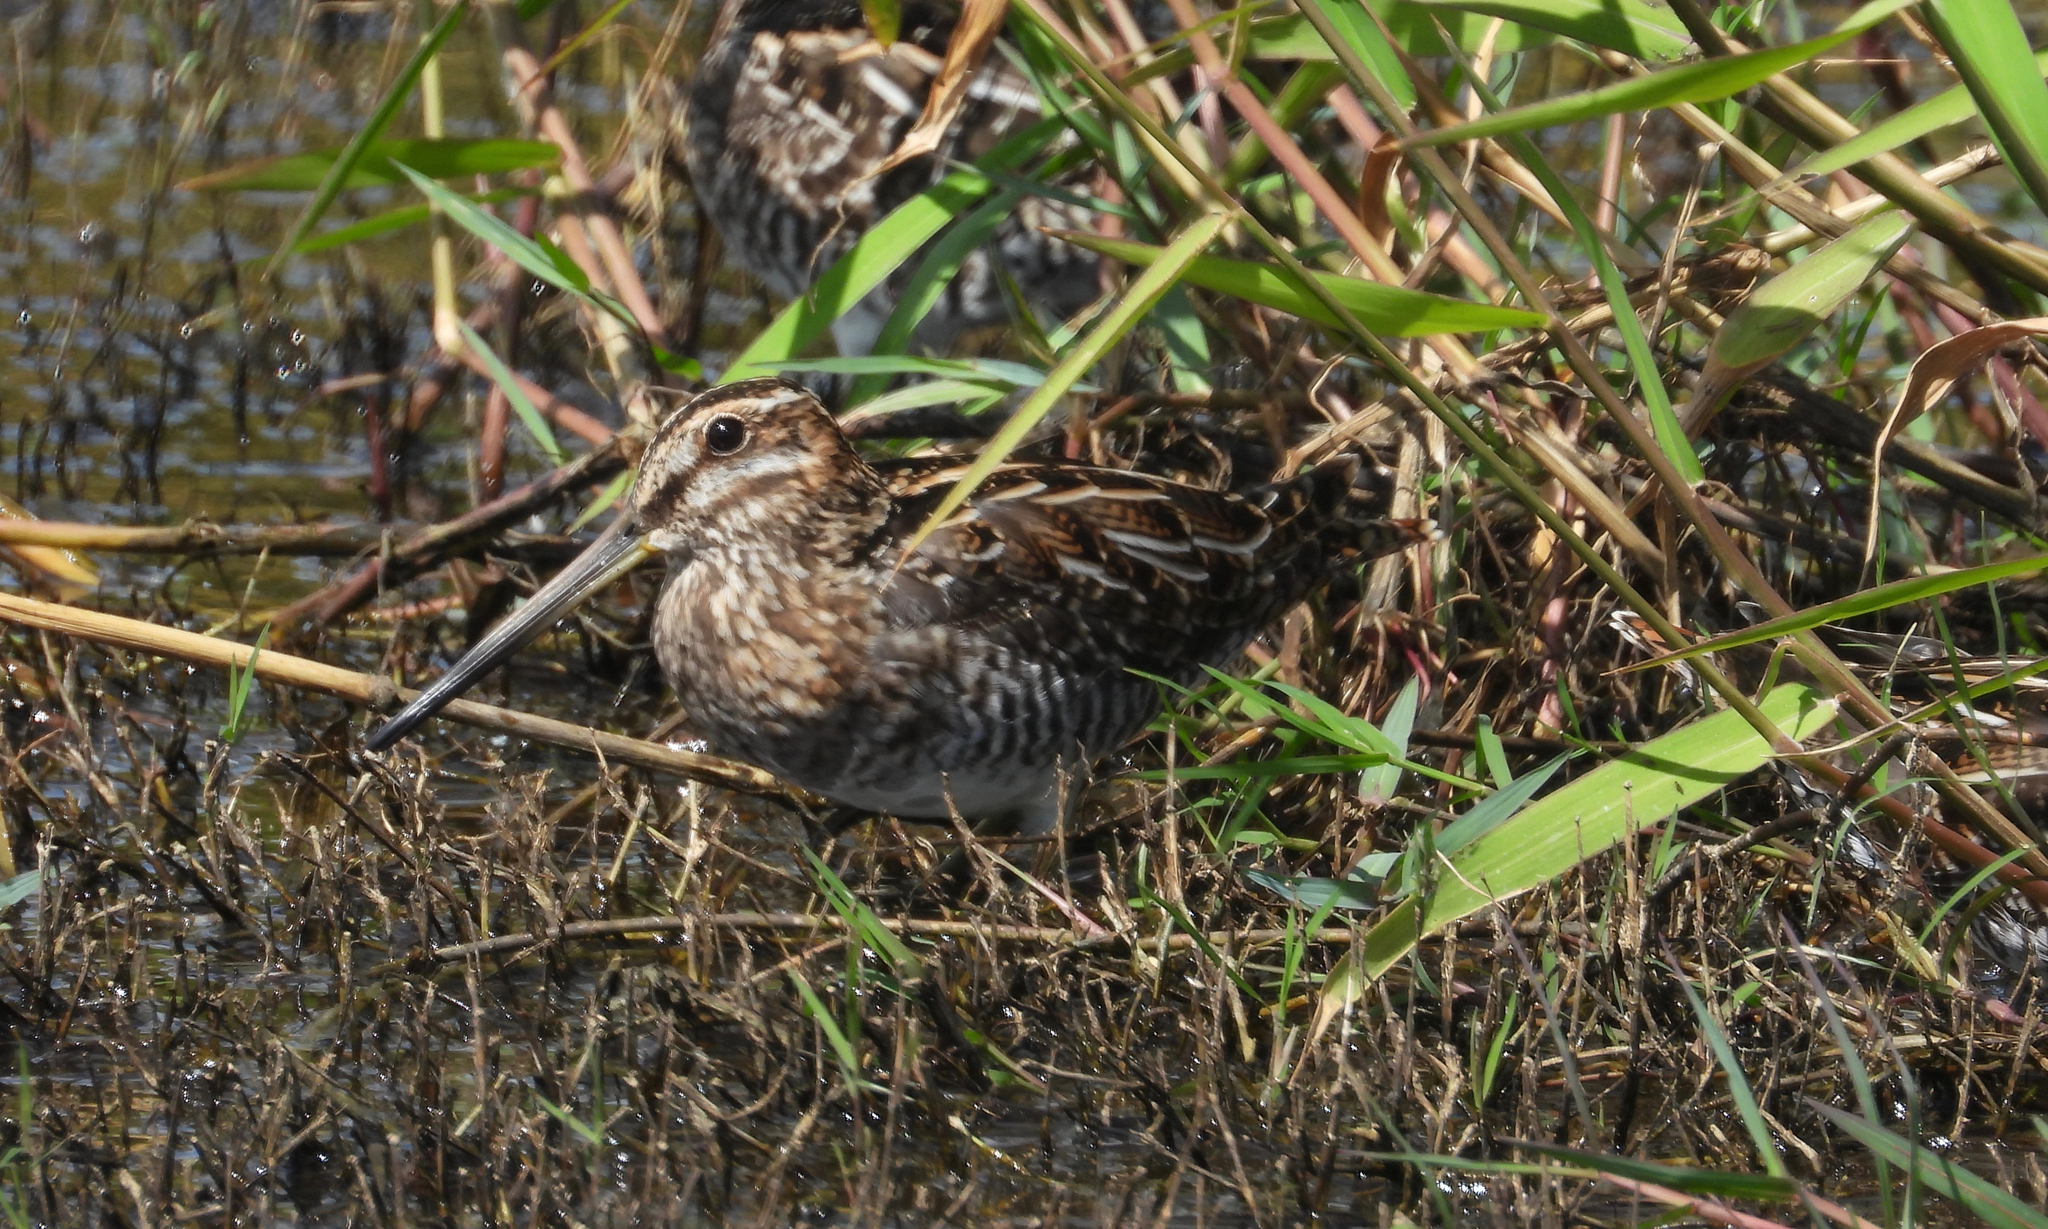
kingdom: Animalia
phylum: Chordata
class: Aves
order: Charadriiformes
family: Scolopacidae
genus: Gallinago
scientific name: Gallinago delicata
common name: Wilson's snipe
